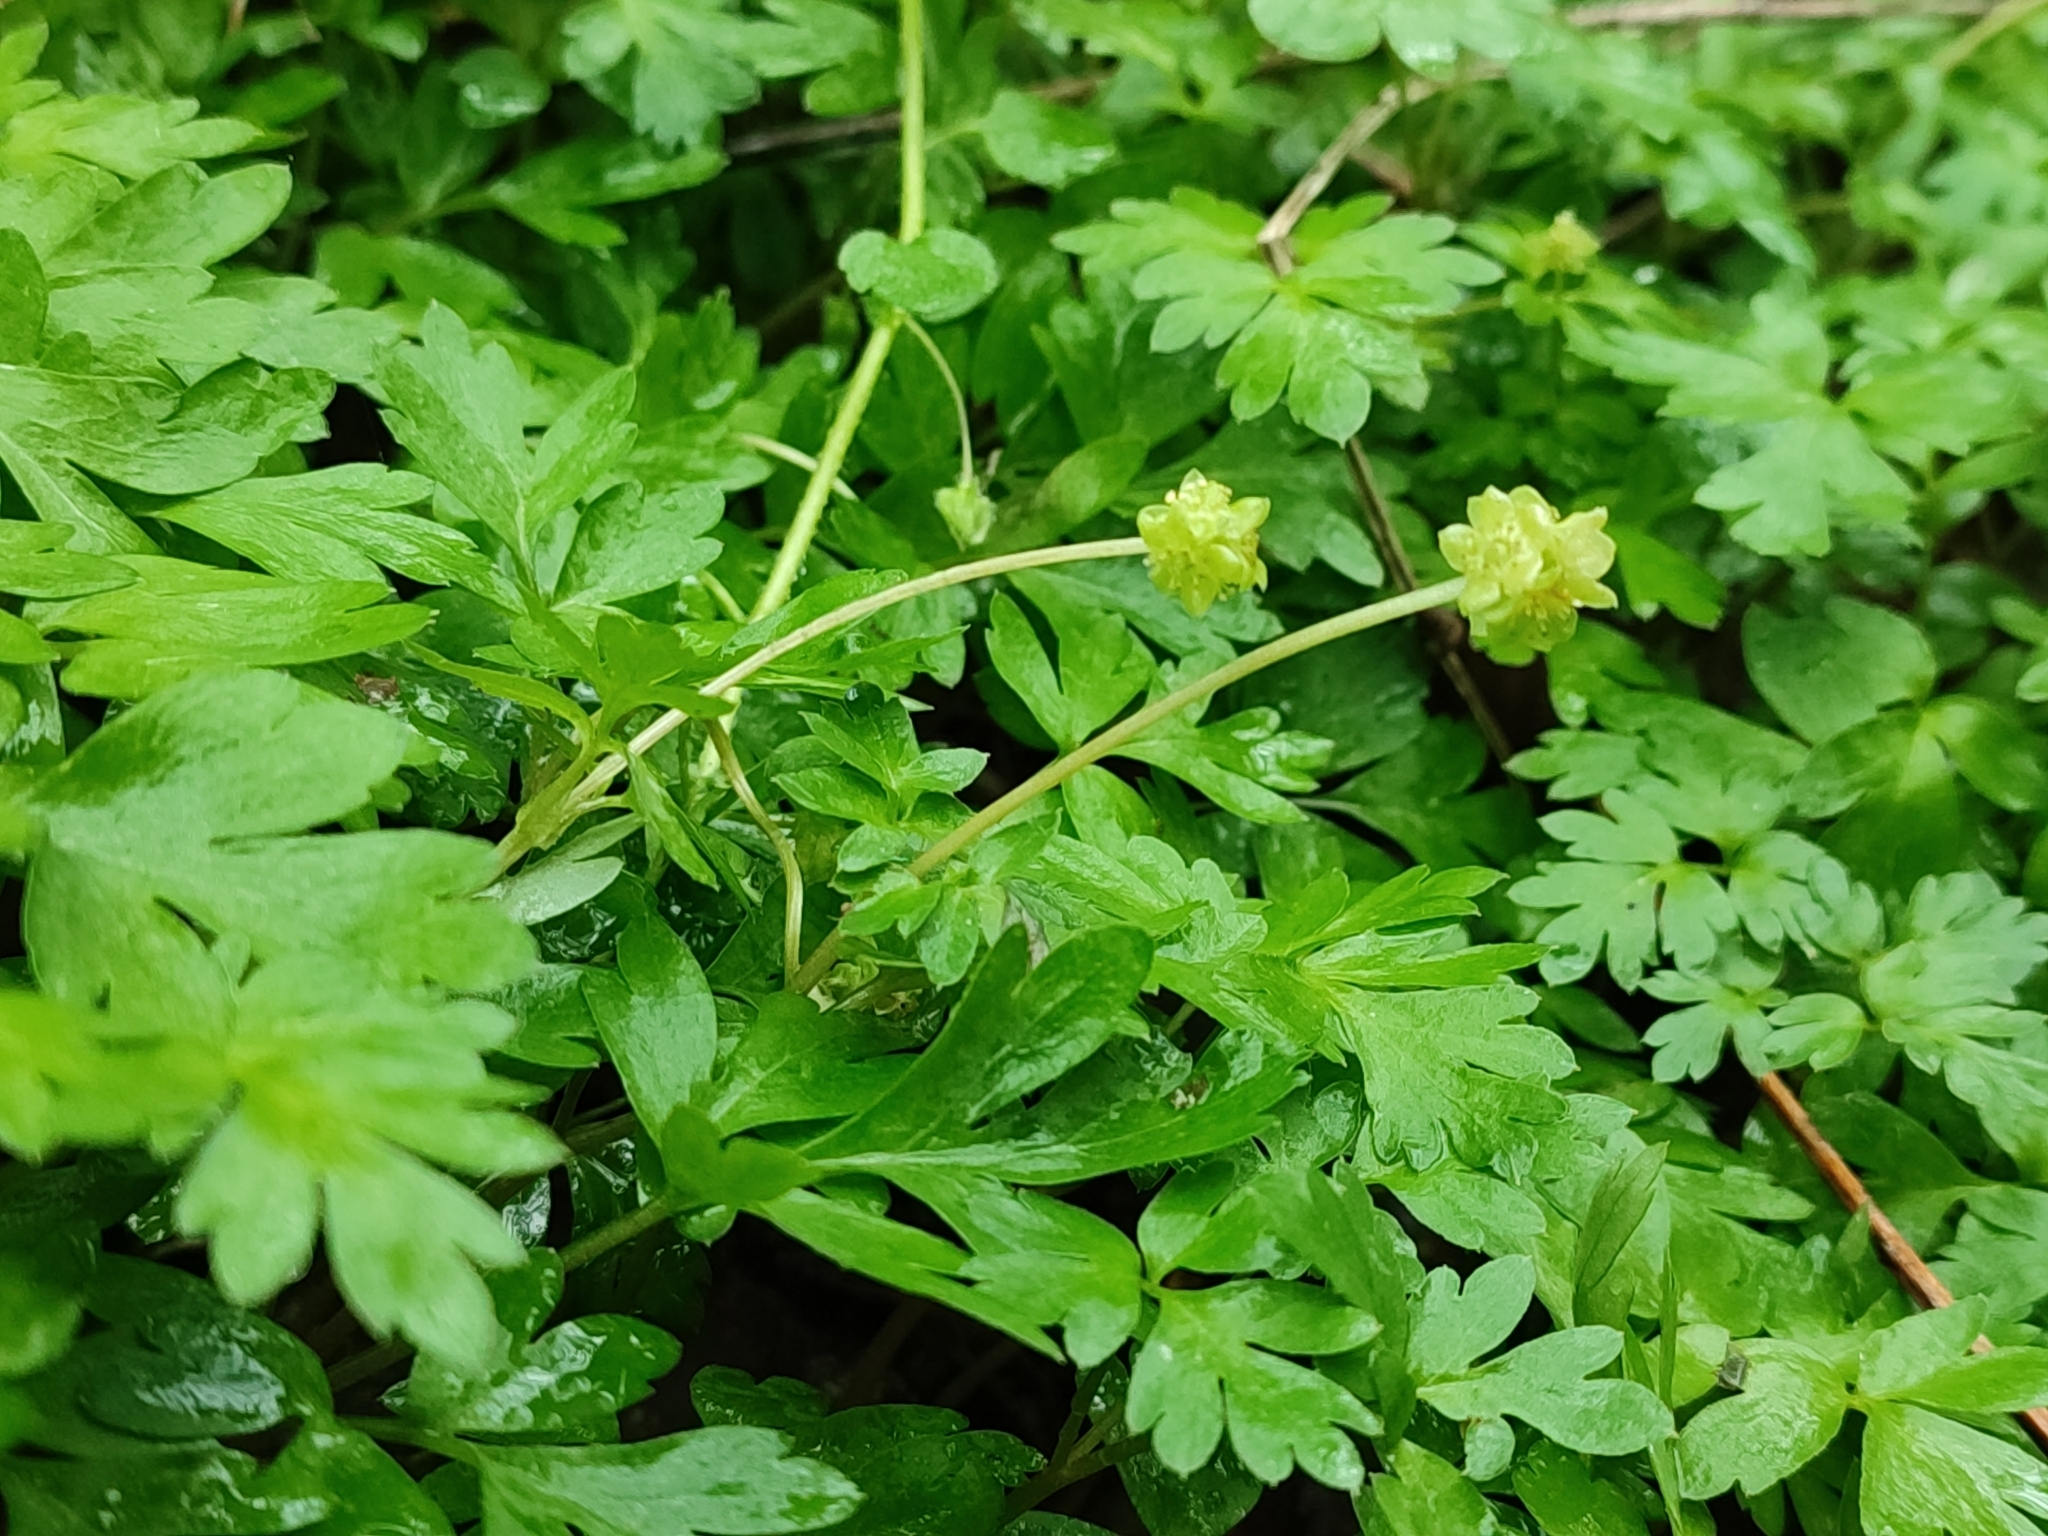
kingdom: Plantae
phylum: Tracheophyta
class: Magnoliopsida
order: Dipsacales
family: Viburnaceae
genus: Adoxa
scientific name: Adoxa moschatellina
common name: Moschatel
